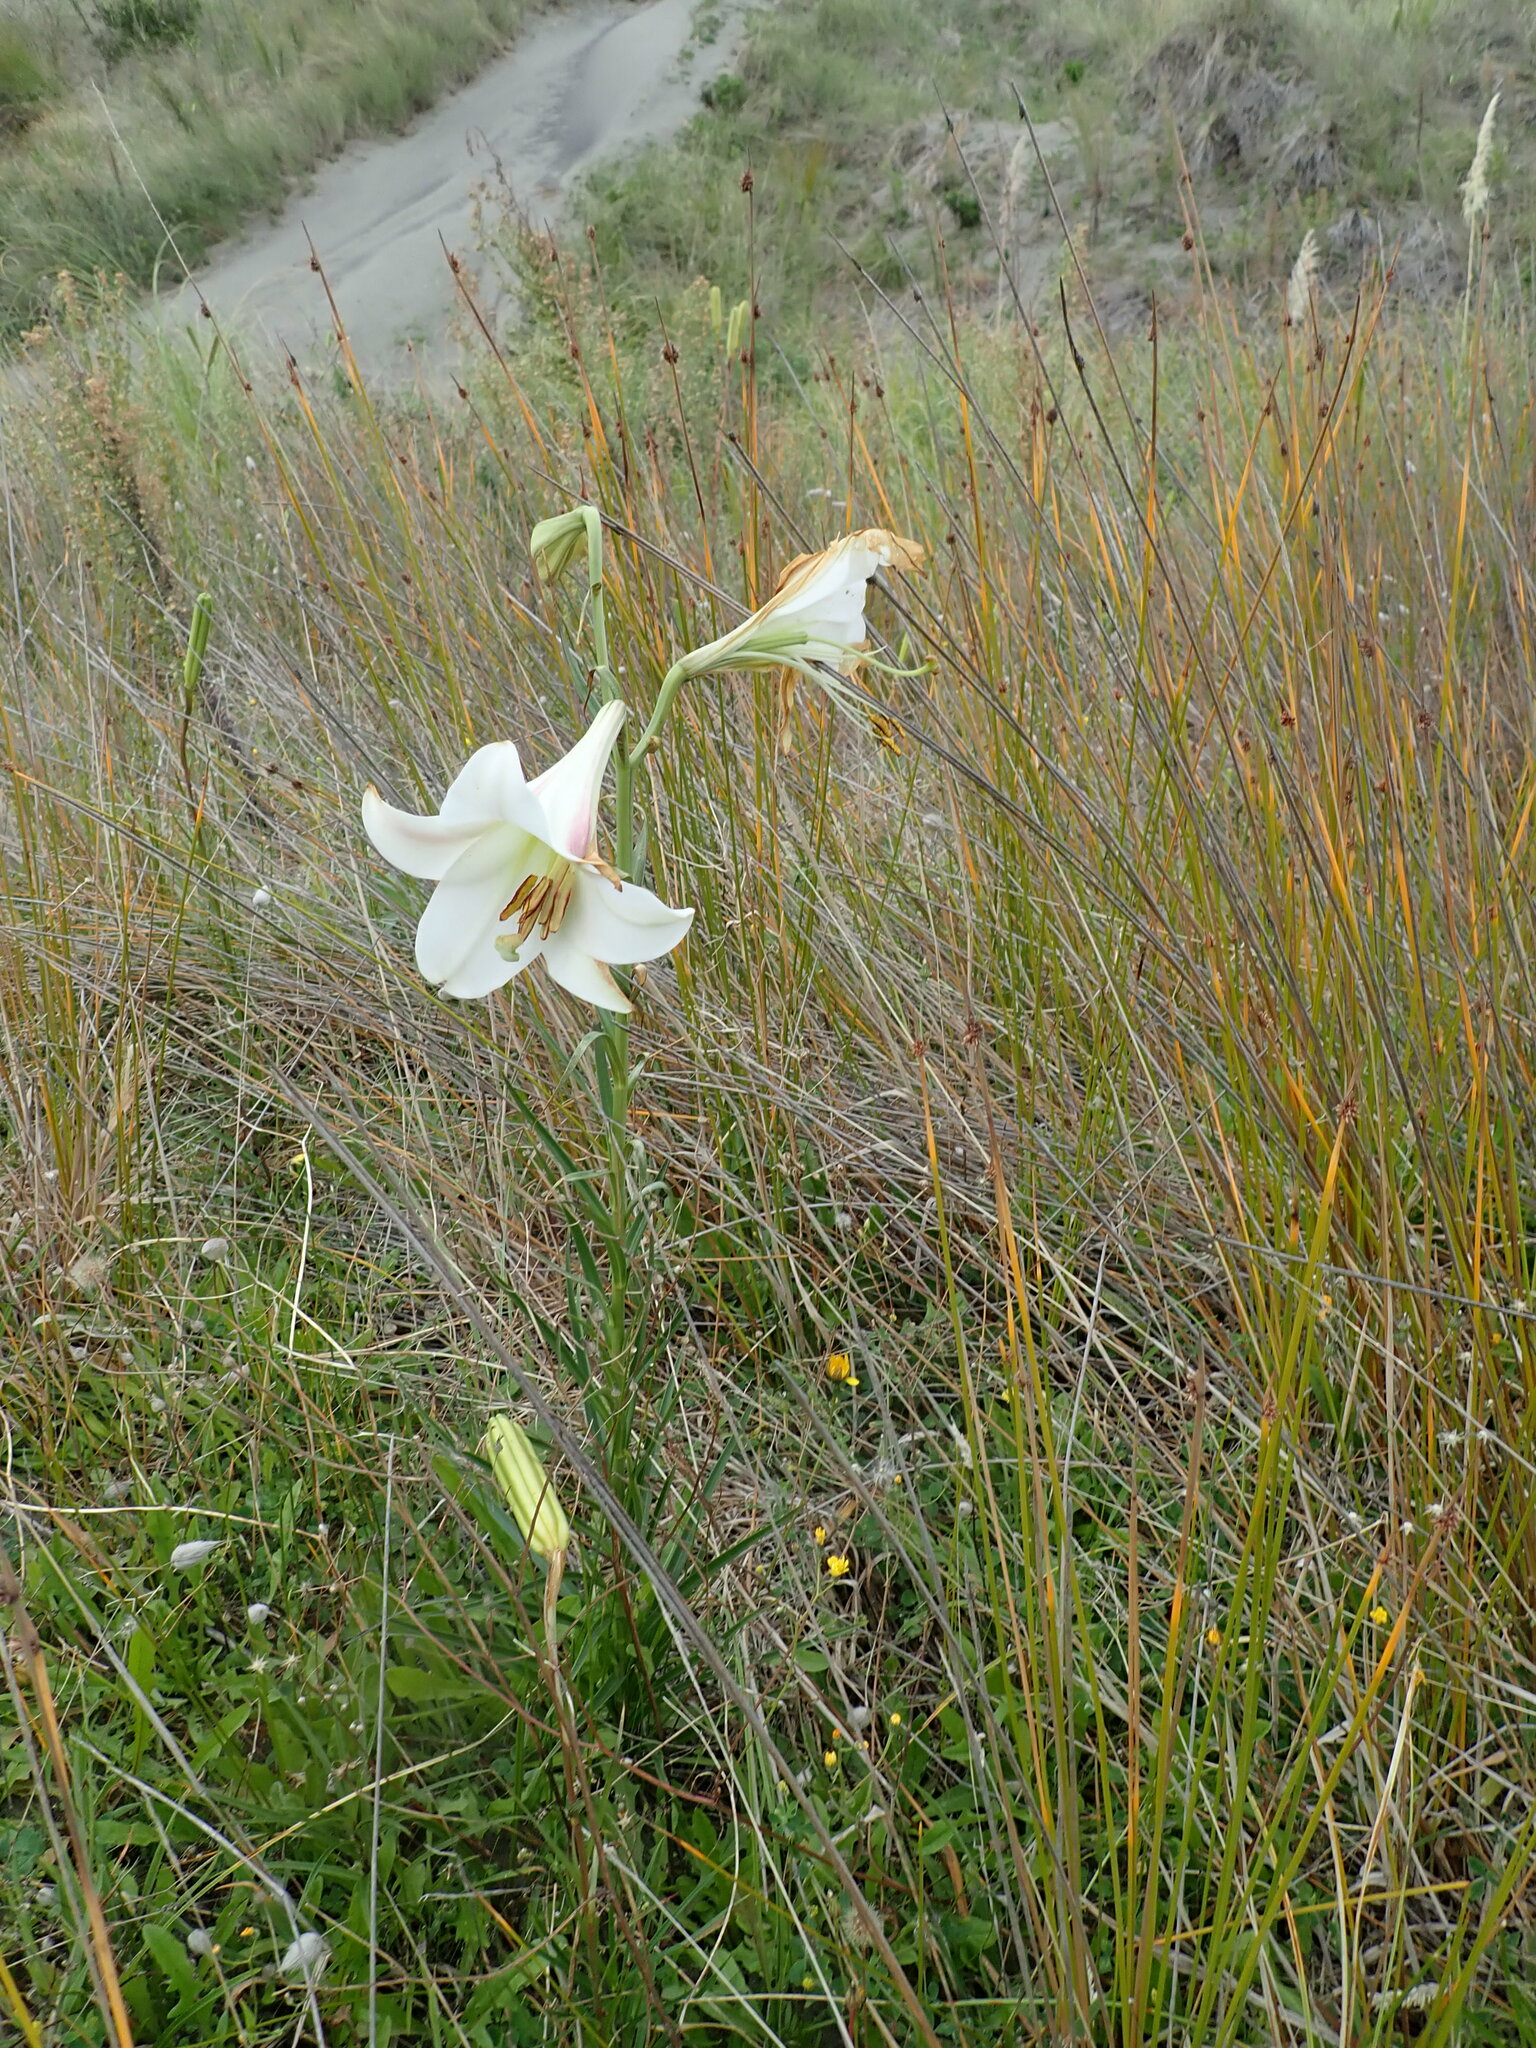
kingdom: Plantae
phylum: Tracheophyta
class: Liliopsida
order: Liliales
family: Liliaceae
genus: Lilium
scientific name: Lilium formosanum
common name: Formosa lily
